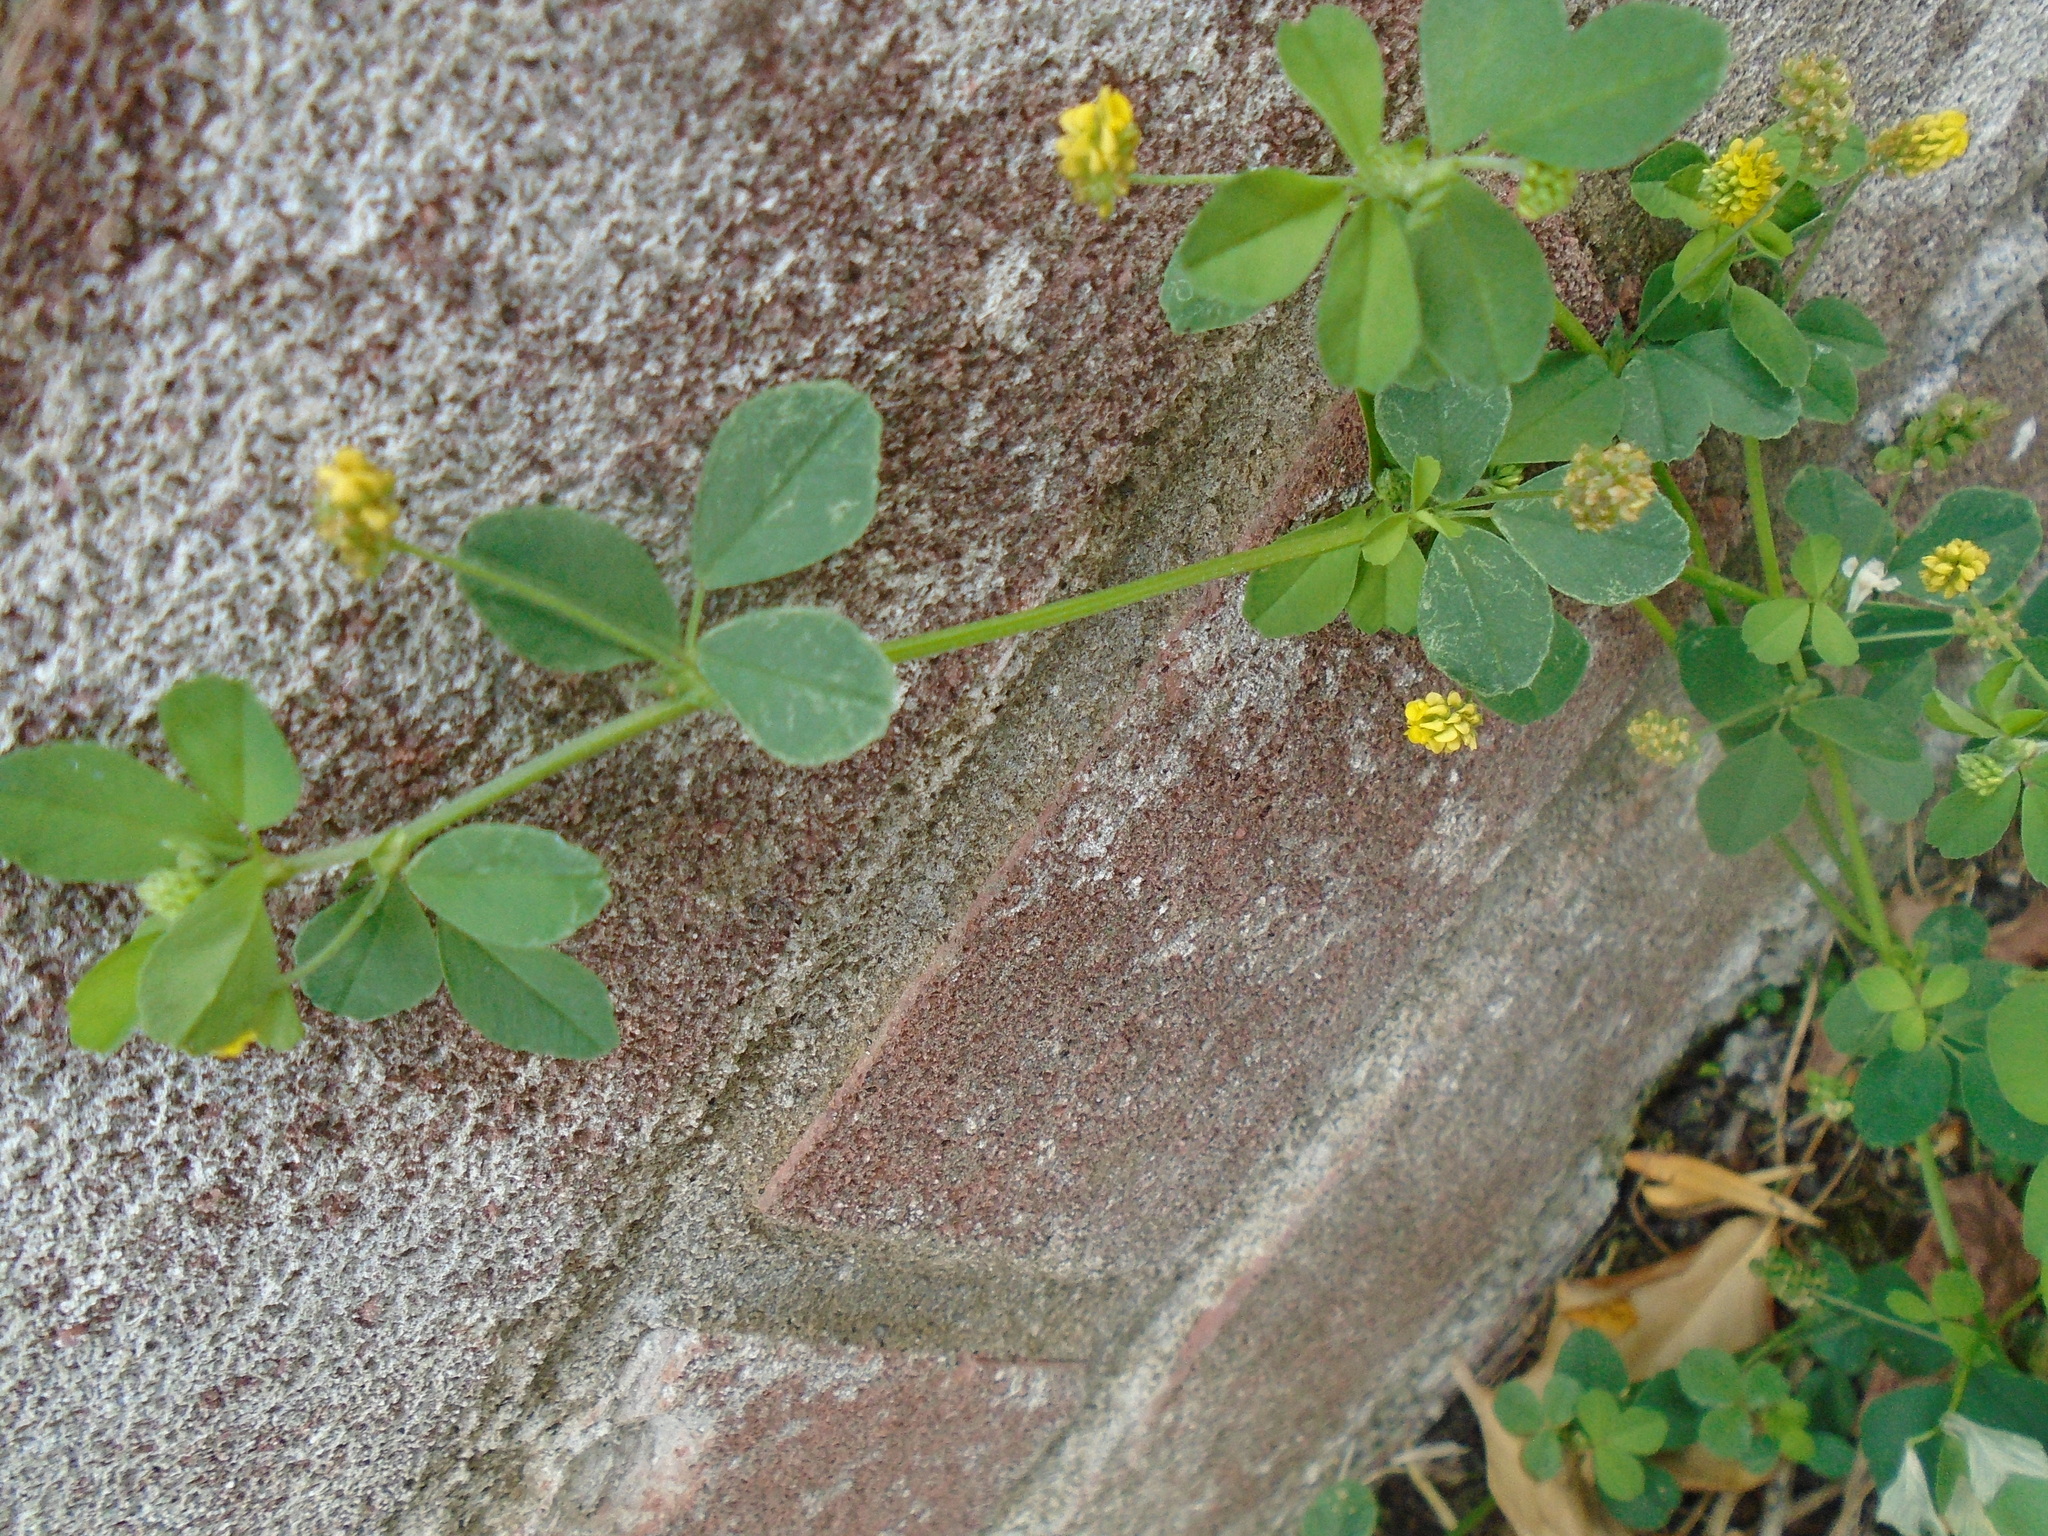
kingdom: Plantae
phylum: Tracheophyta
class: Magnoliopsida
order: Fabales
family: Fabaceae
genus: Medicago
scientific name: Medicago lupulina
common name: Black medick
